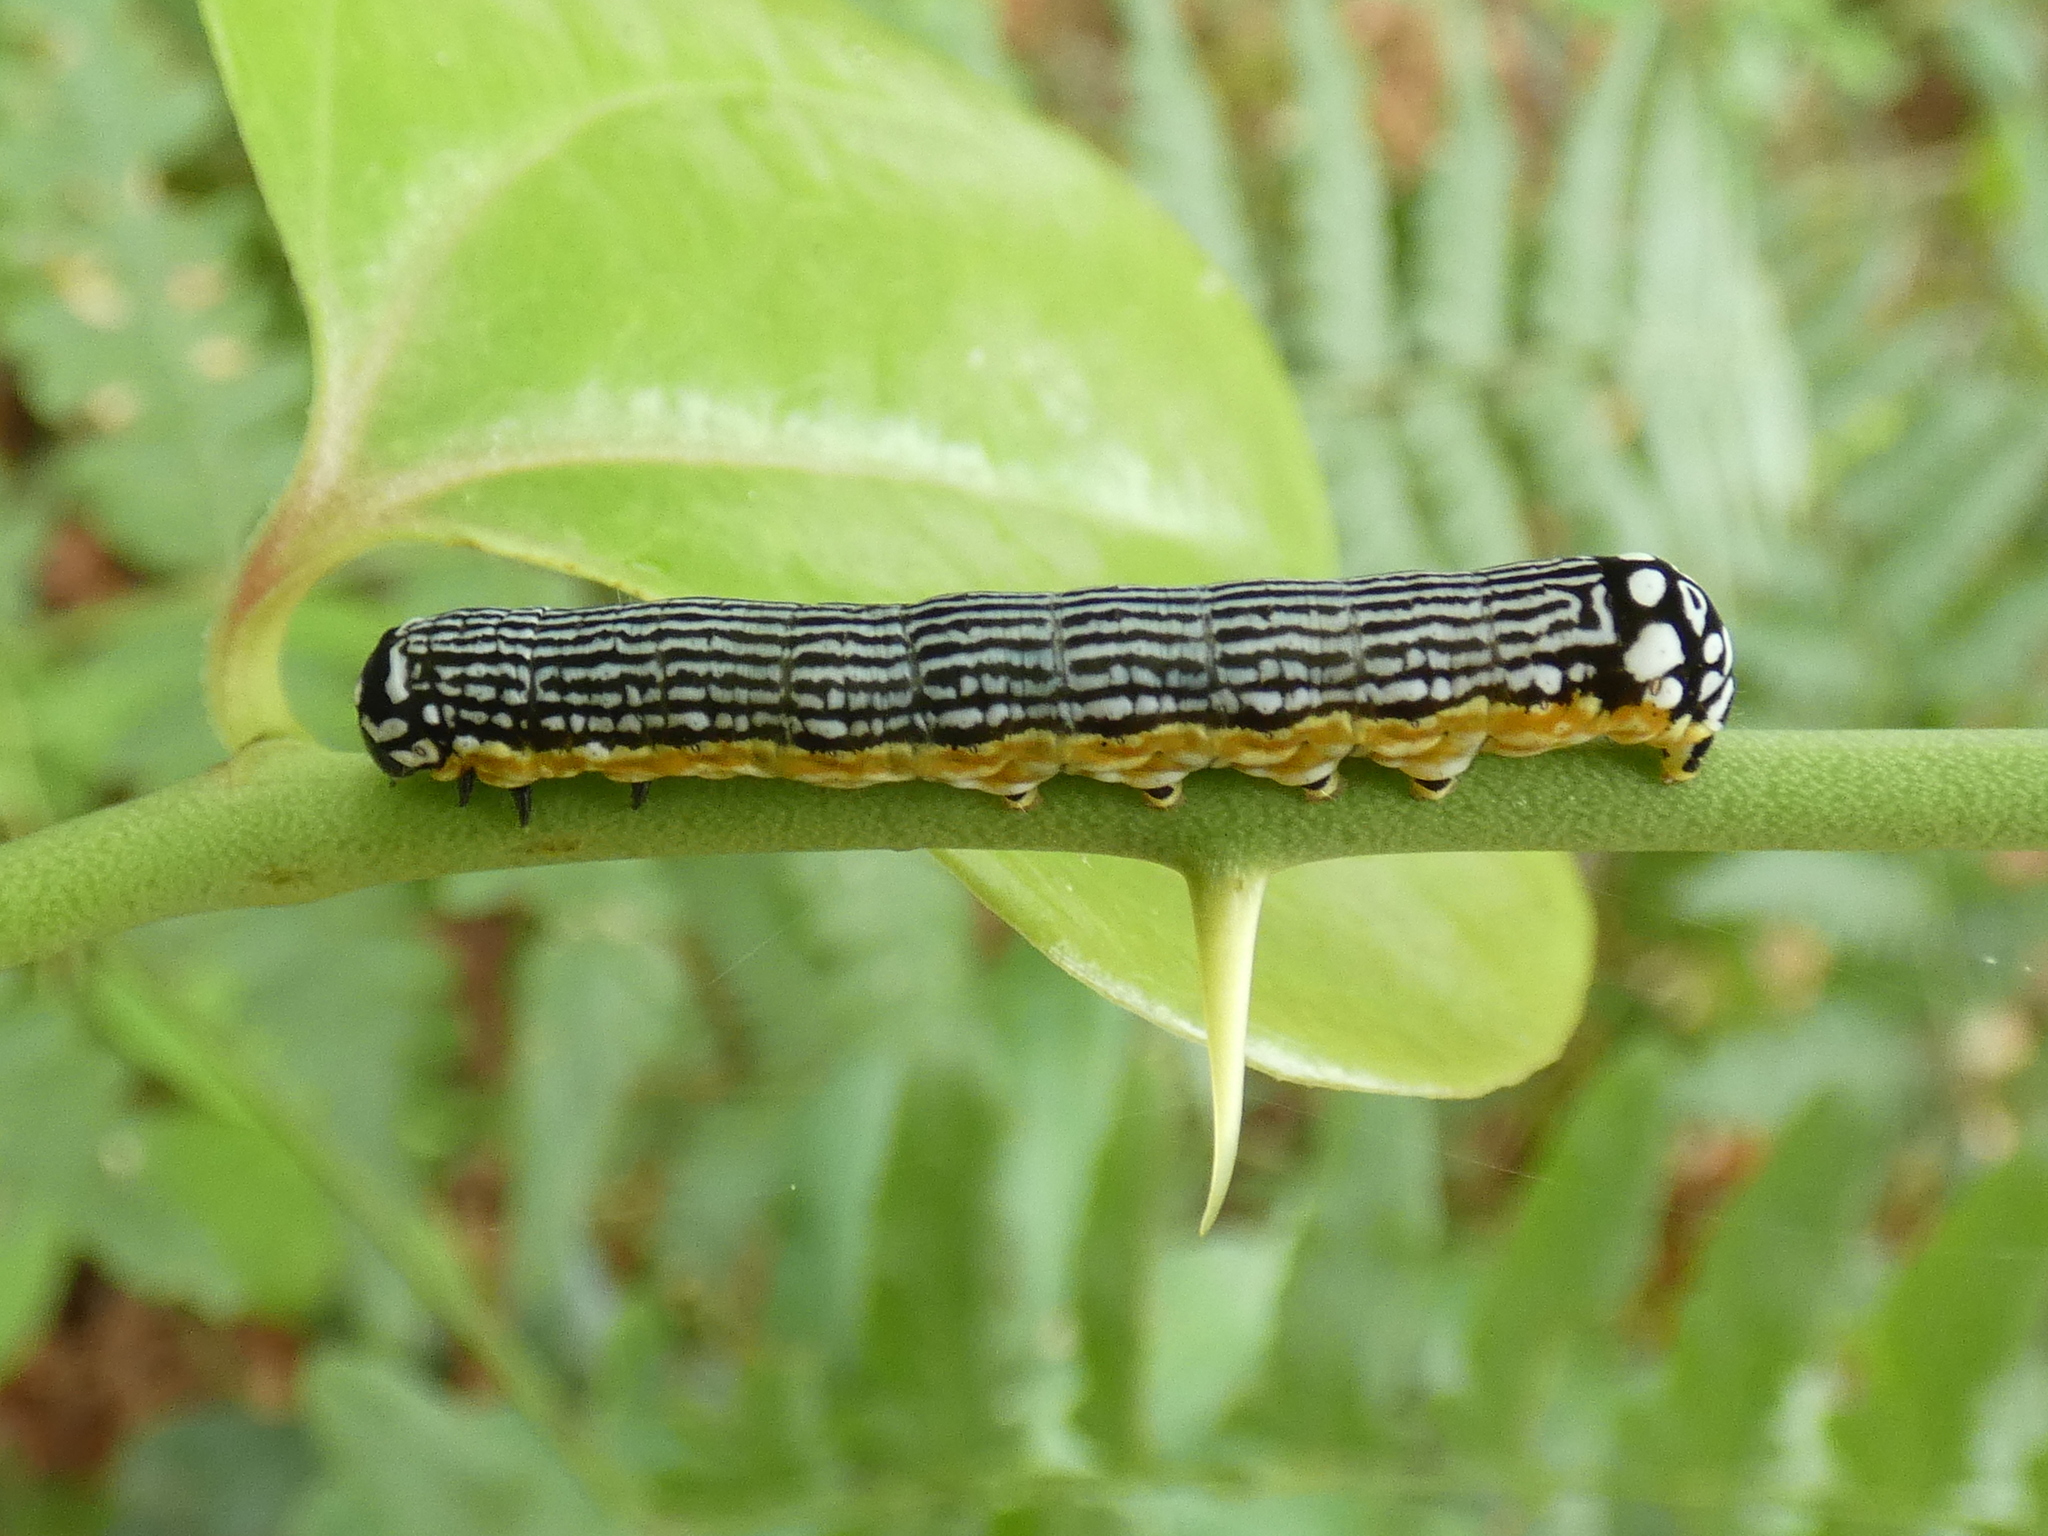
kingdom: Animalia
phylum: Arthropoda
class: Insecta
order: Lepidoptera
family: Noctuidae
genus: Phosphila
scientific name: Phosphila turbulenta
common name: Turbulent phosphila moth
